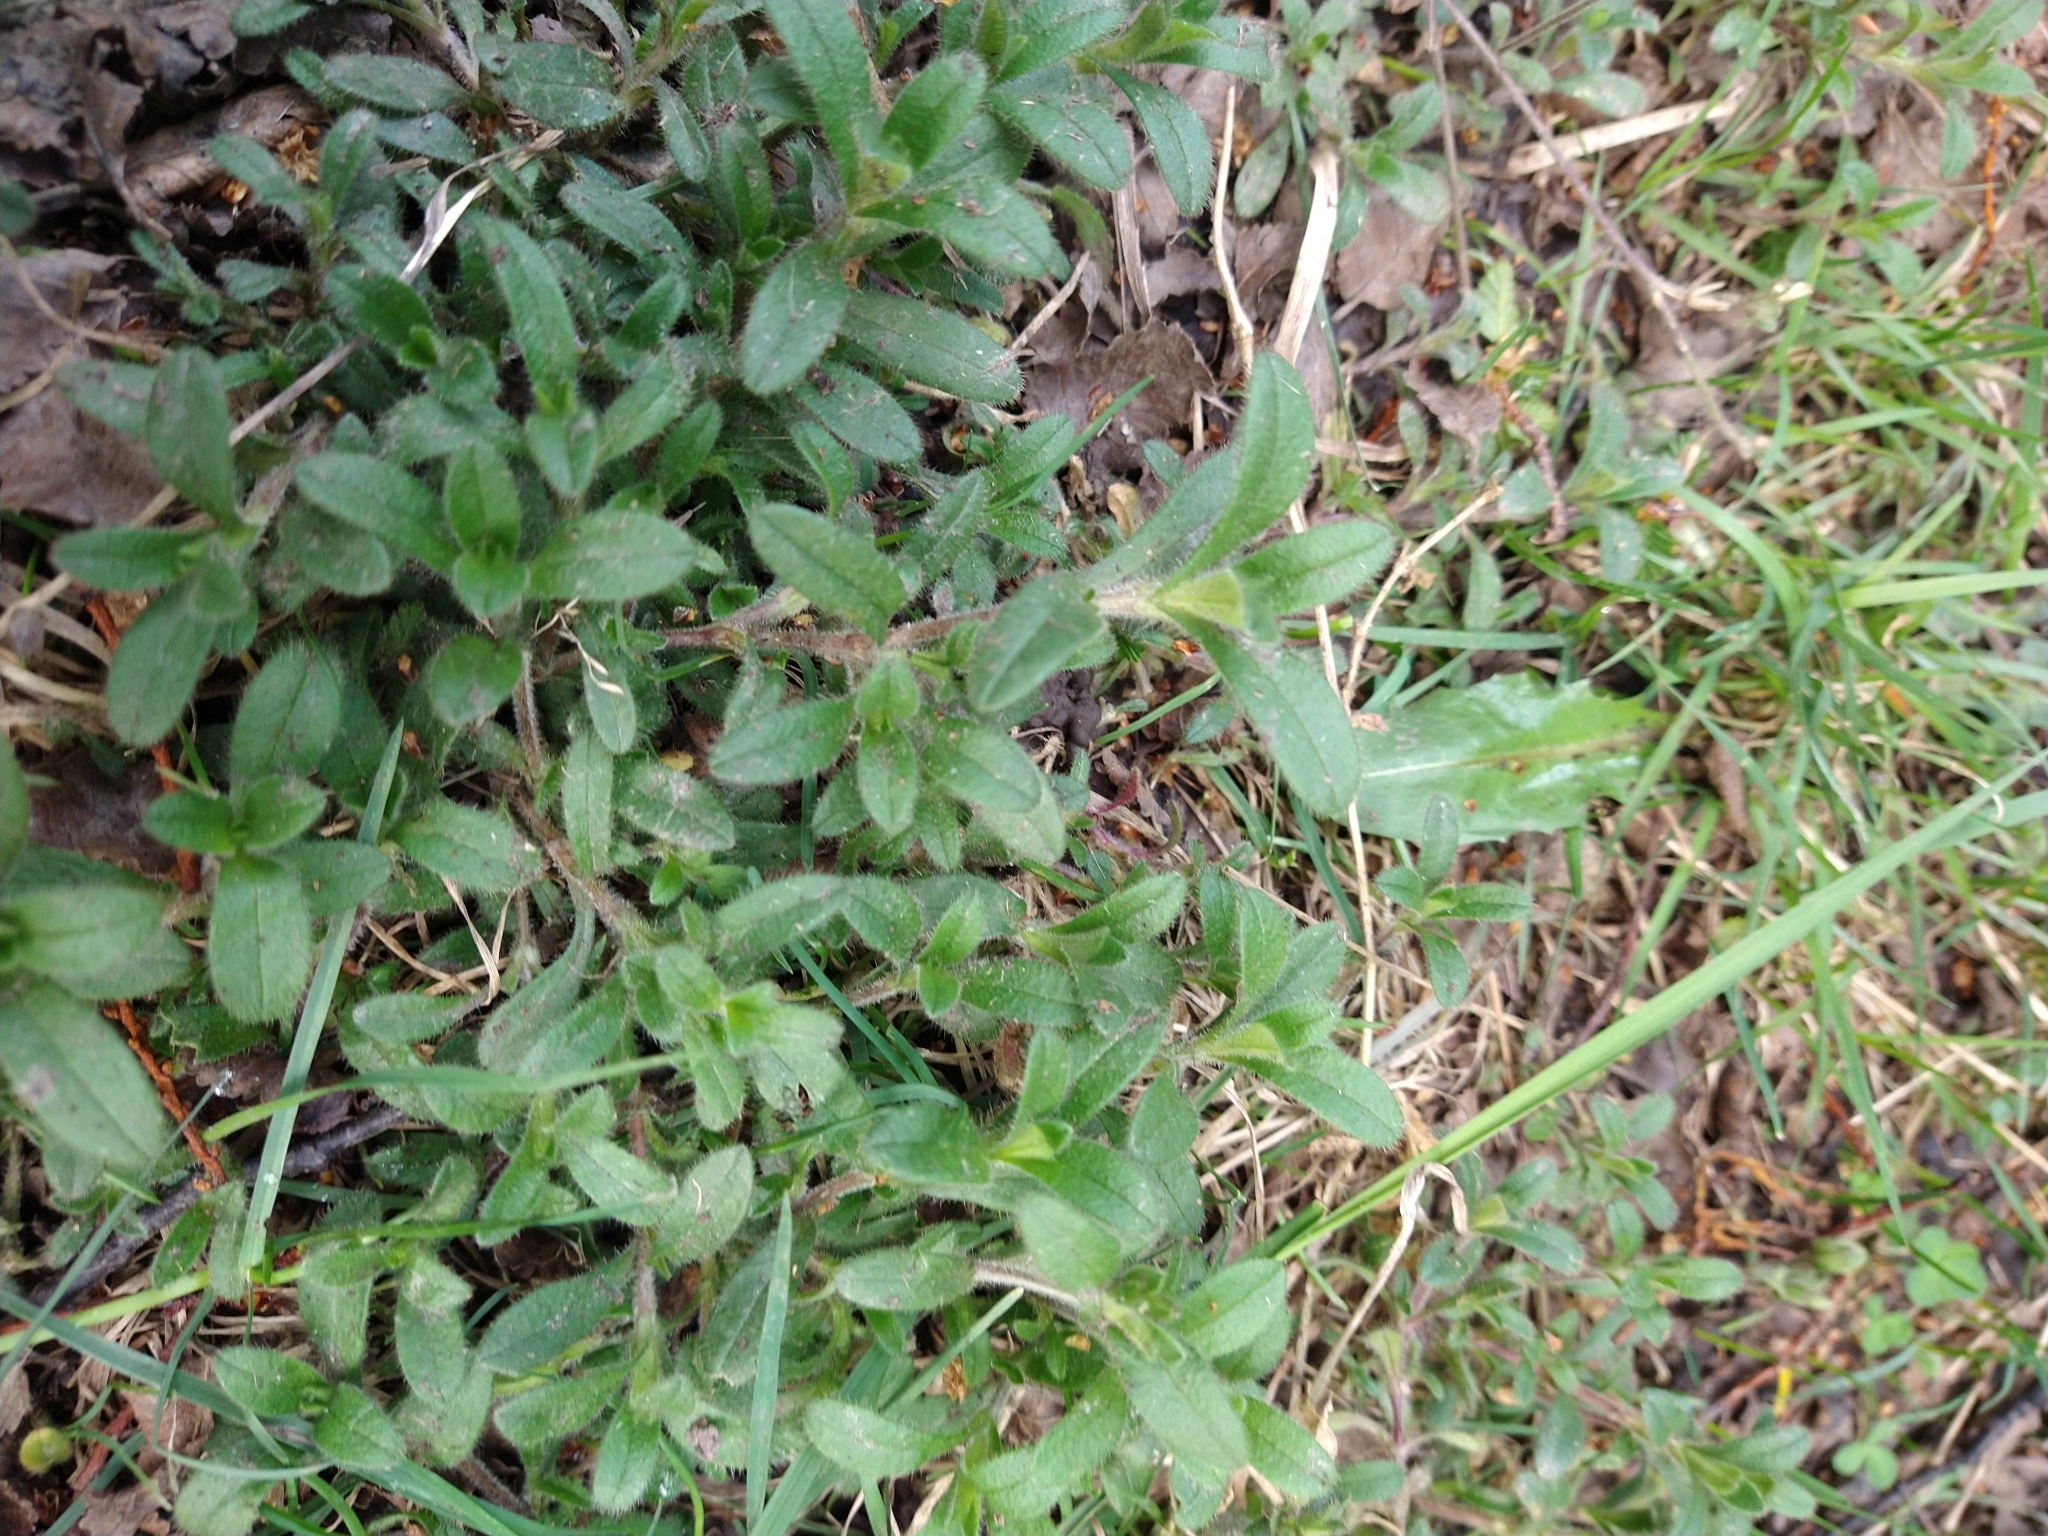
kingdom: Plantae
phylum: Tracheophyta
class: Magnoliopsida
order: Caryophyllales
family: Caryophyllaceae
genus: Cerastium
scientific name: Cerastium arvense
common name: Field mouse-ear
